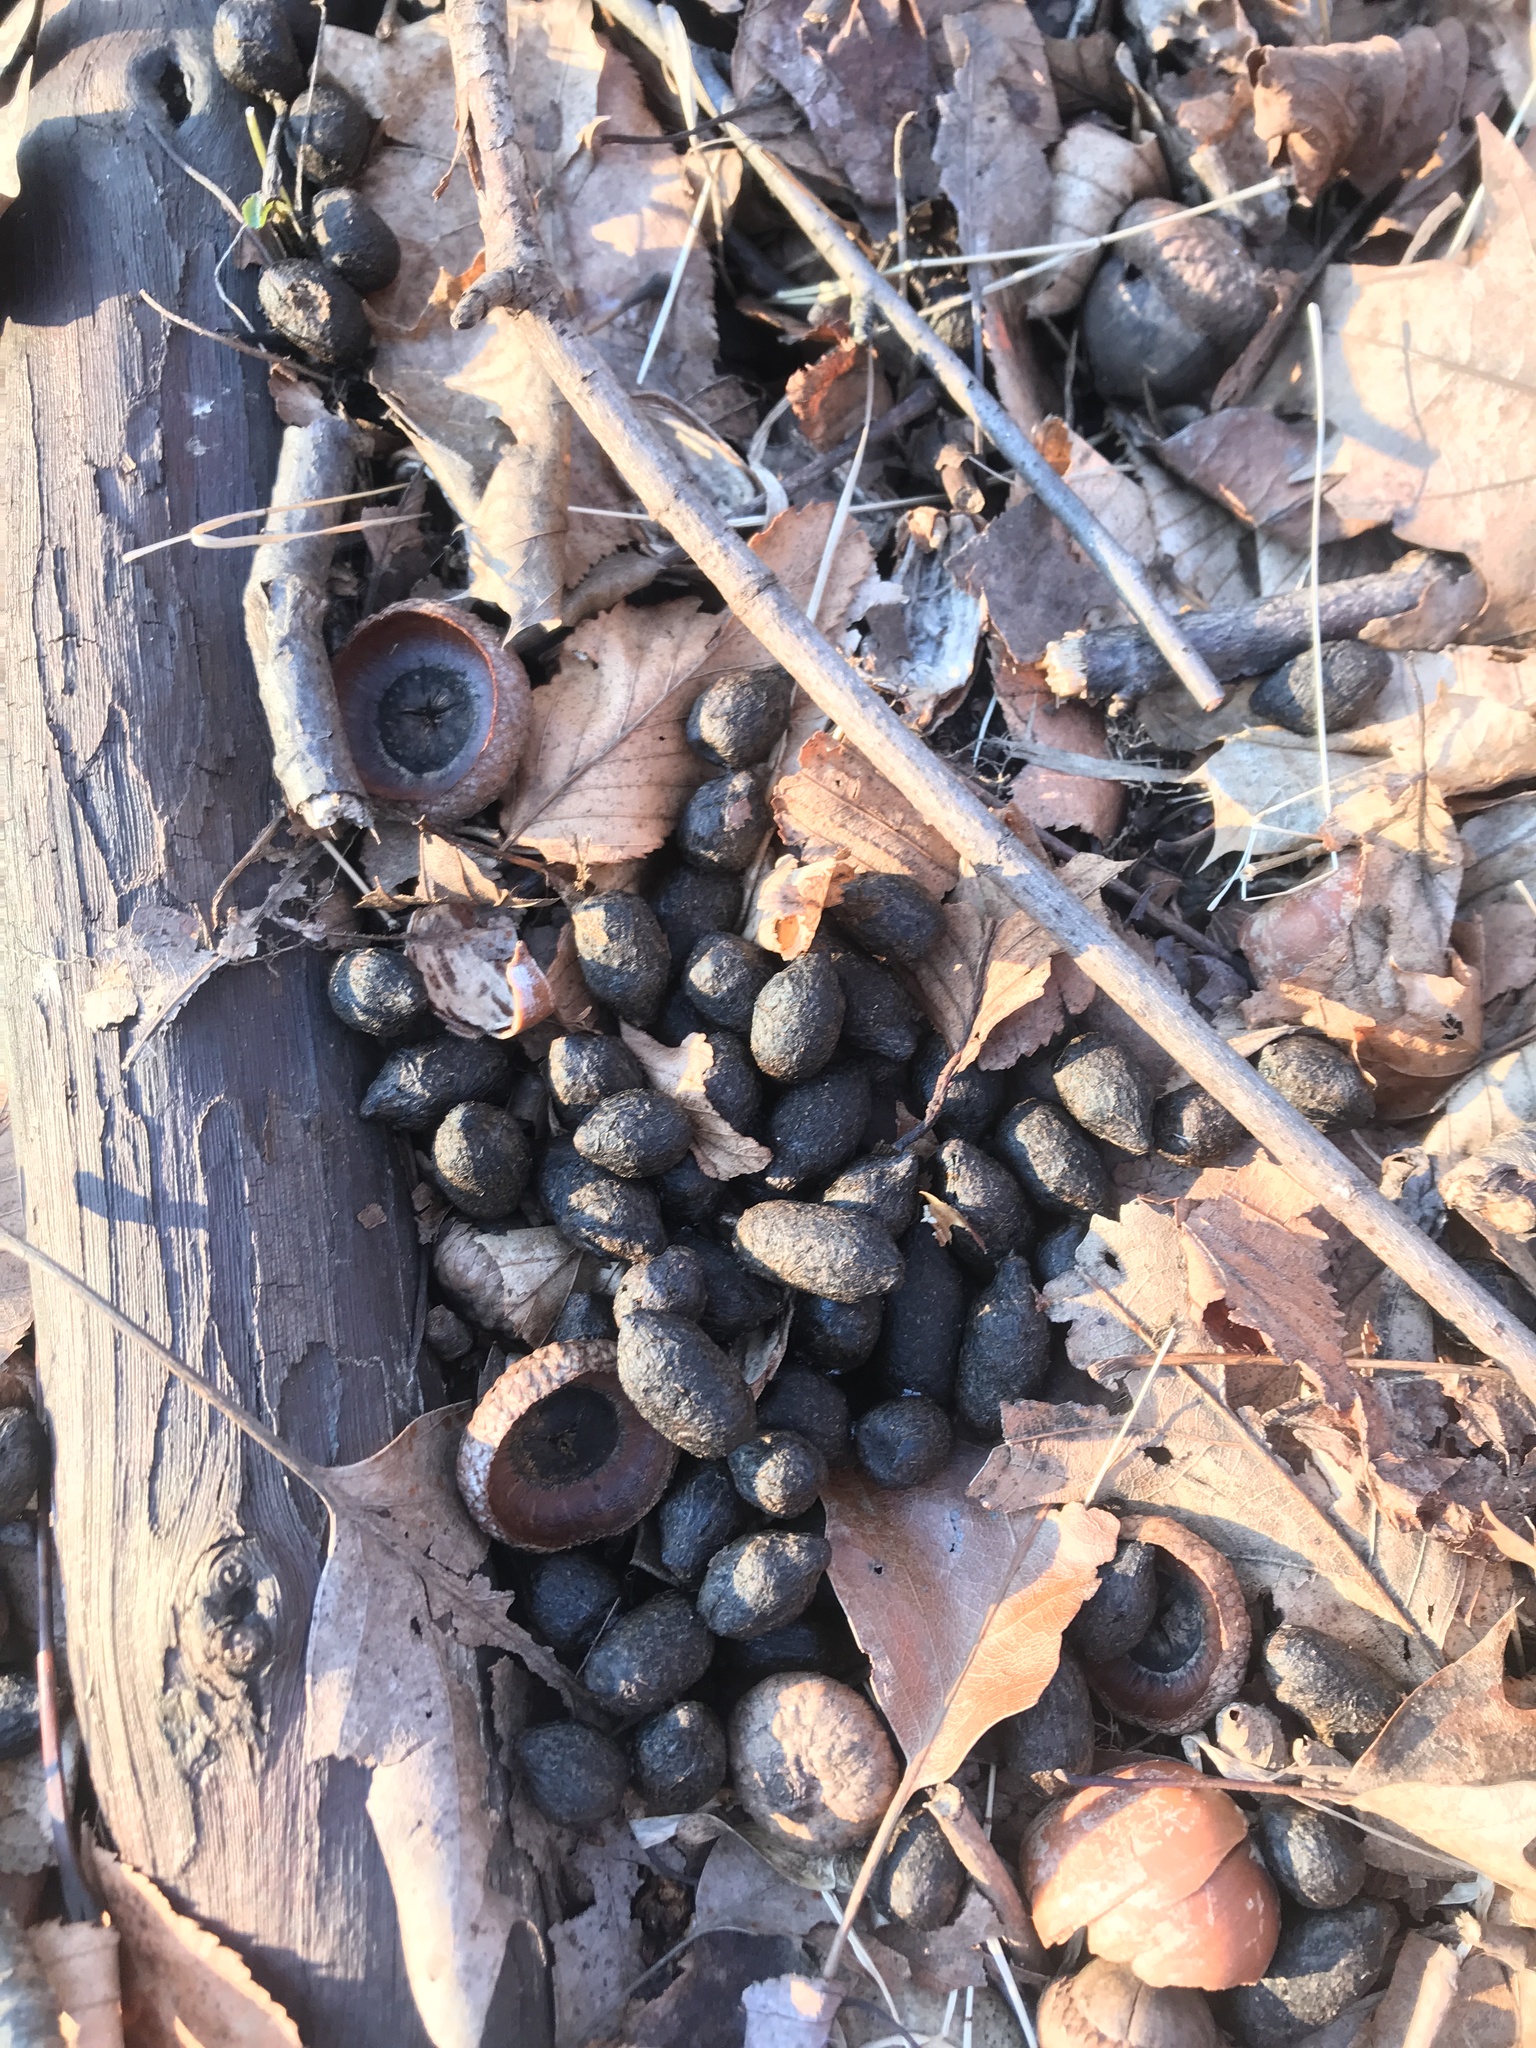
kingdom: Animalia
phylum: Chordata
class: Mammalia
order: Artiodactyla
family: Cervidae
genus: Odocoileus
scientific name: Odocoileus virginianus
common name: White-tailed deer
